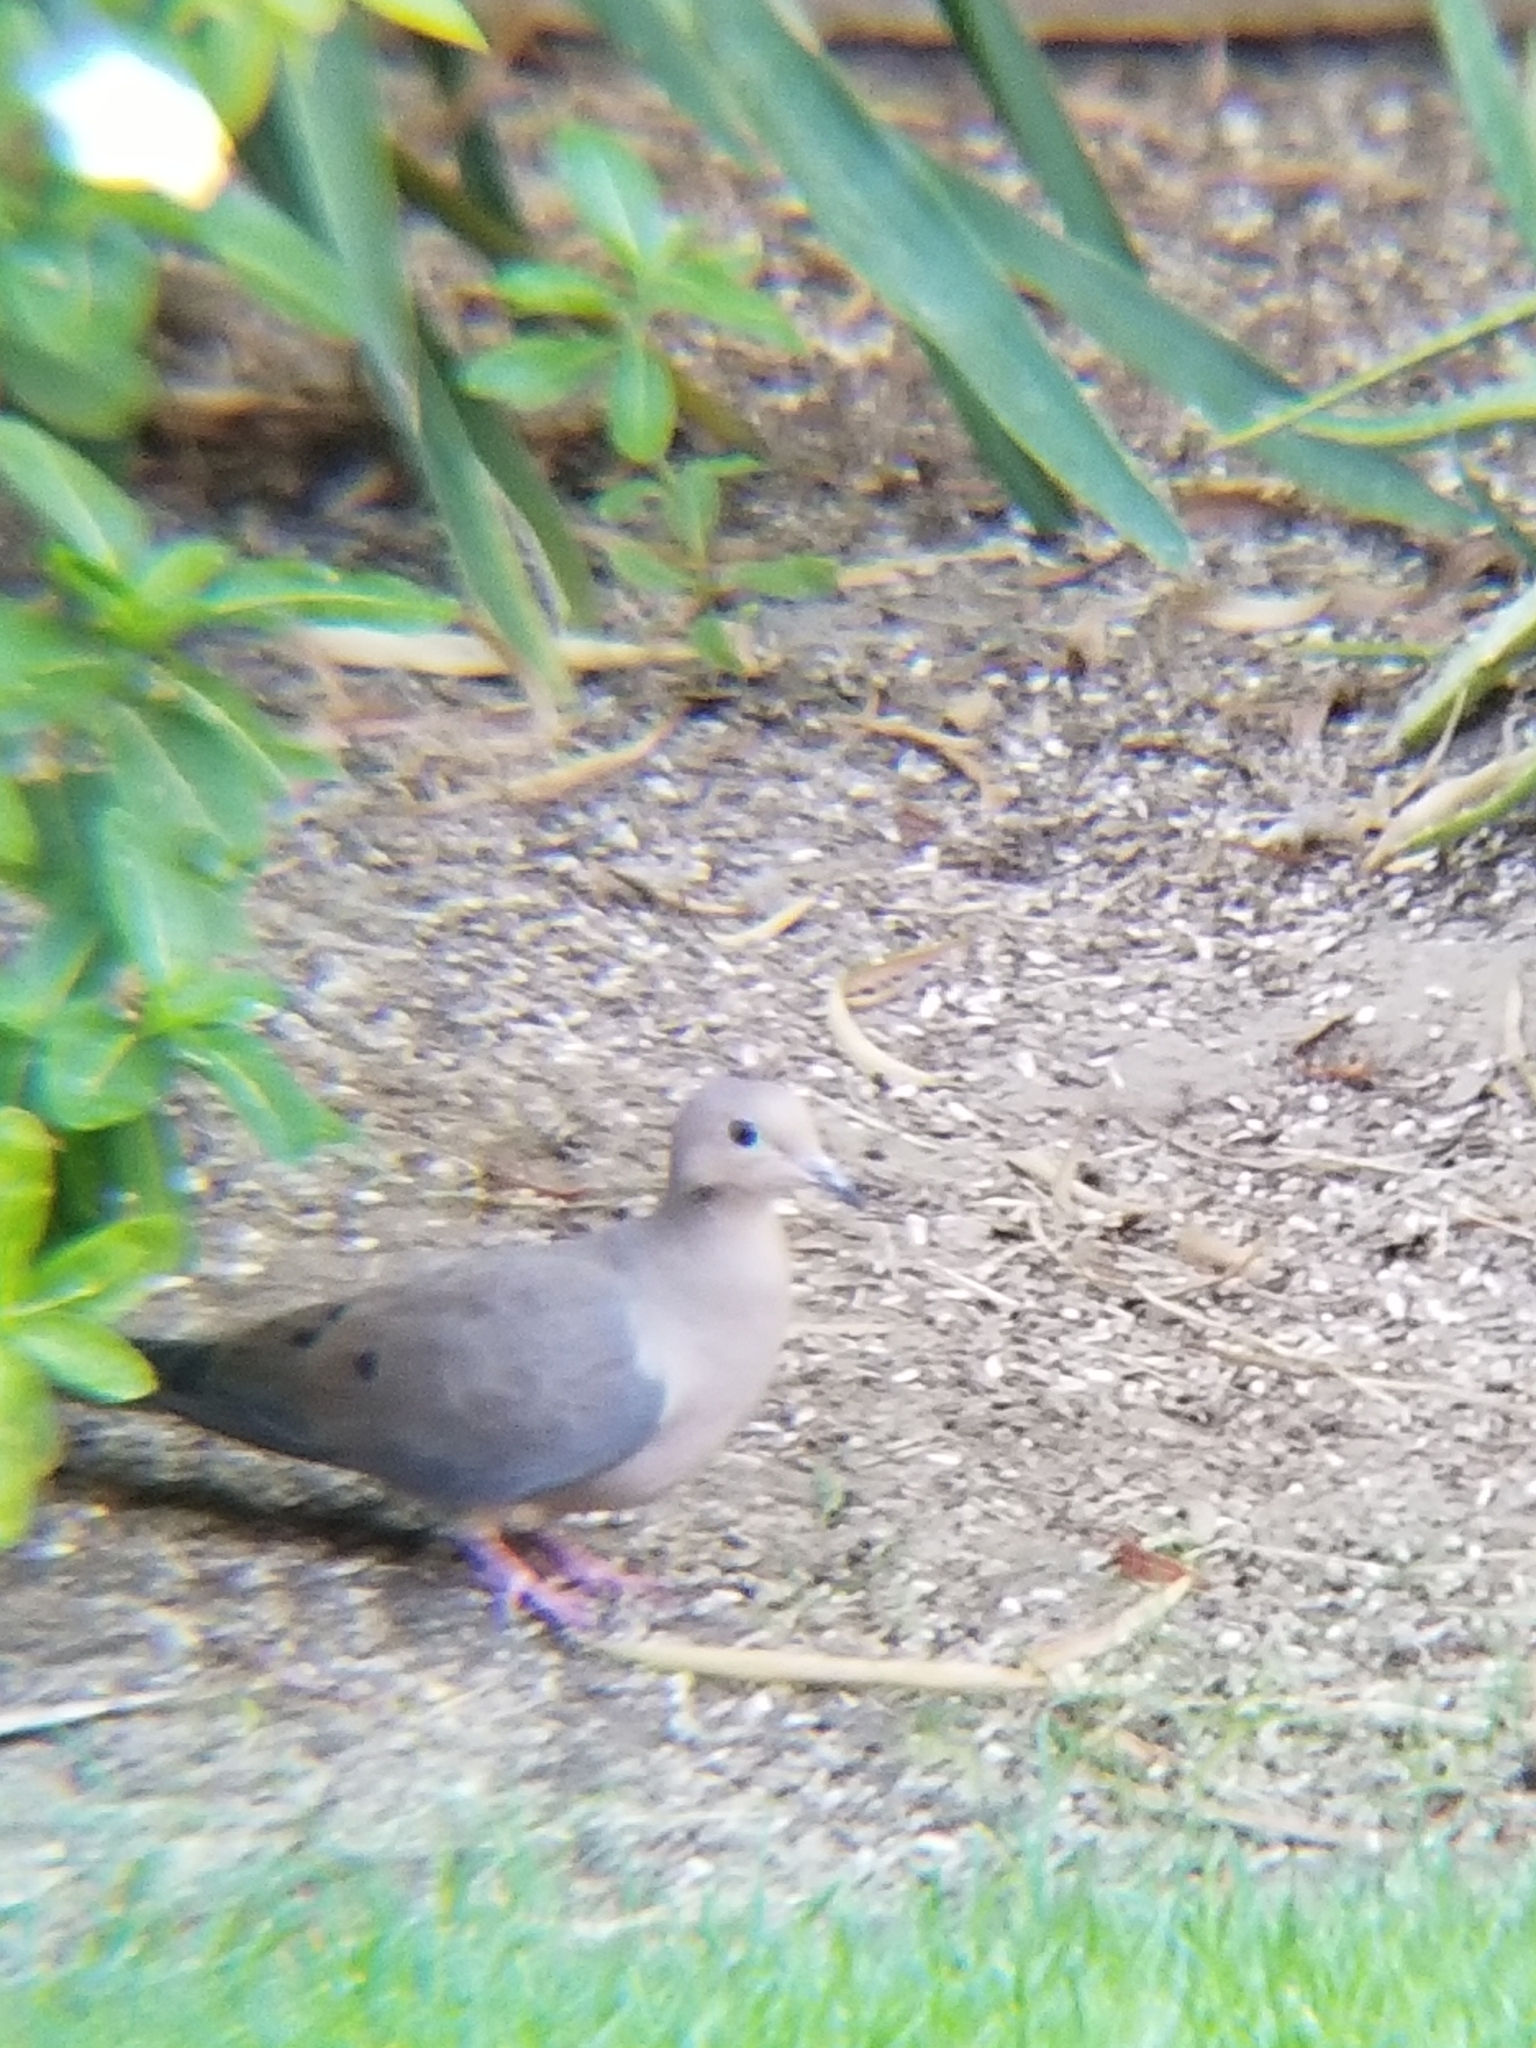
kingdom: Animalia
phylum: Chordata
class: Aves
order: Columbiformes
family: Columbidae
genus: Zenaida
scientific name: Zenaida macroura
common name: Mourning dove
